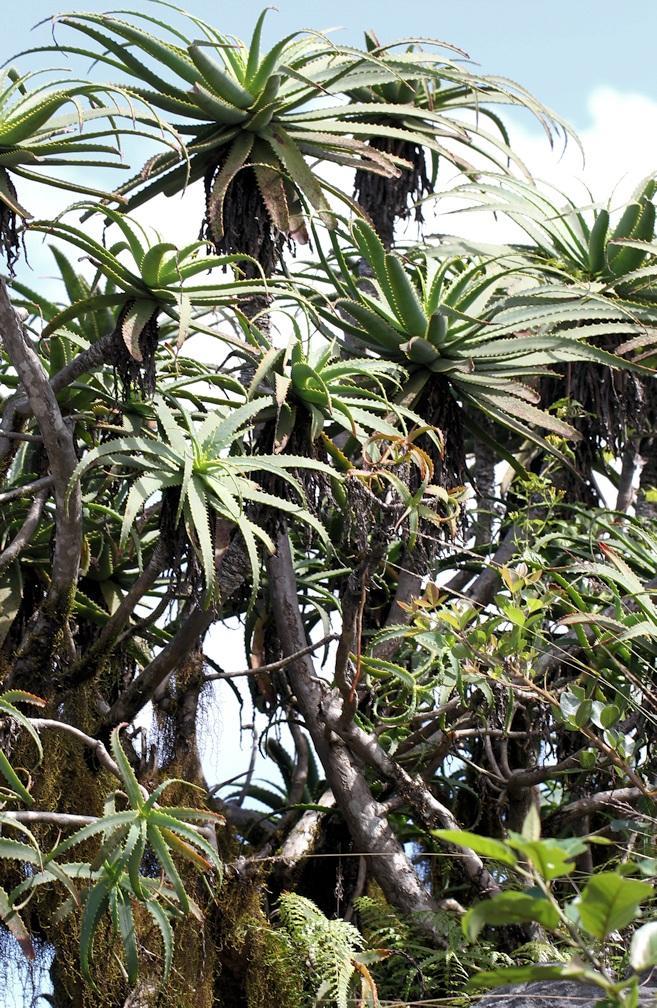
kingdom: Plantae
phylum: Tracheophyta
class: Liliopsida
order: Asparagales
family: Asphodelaceae
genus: Aloe
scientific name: Aloe arborescens
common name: Candelabra aloe
